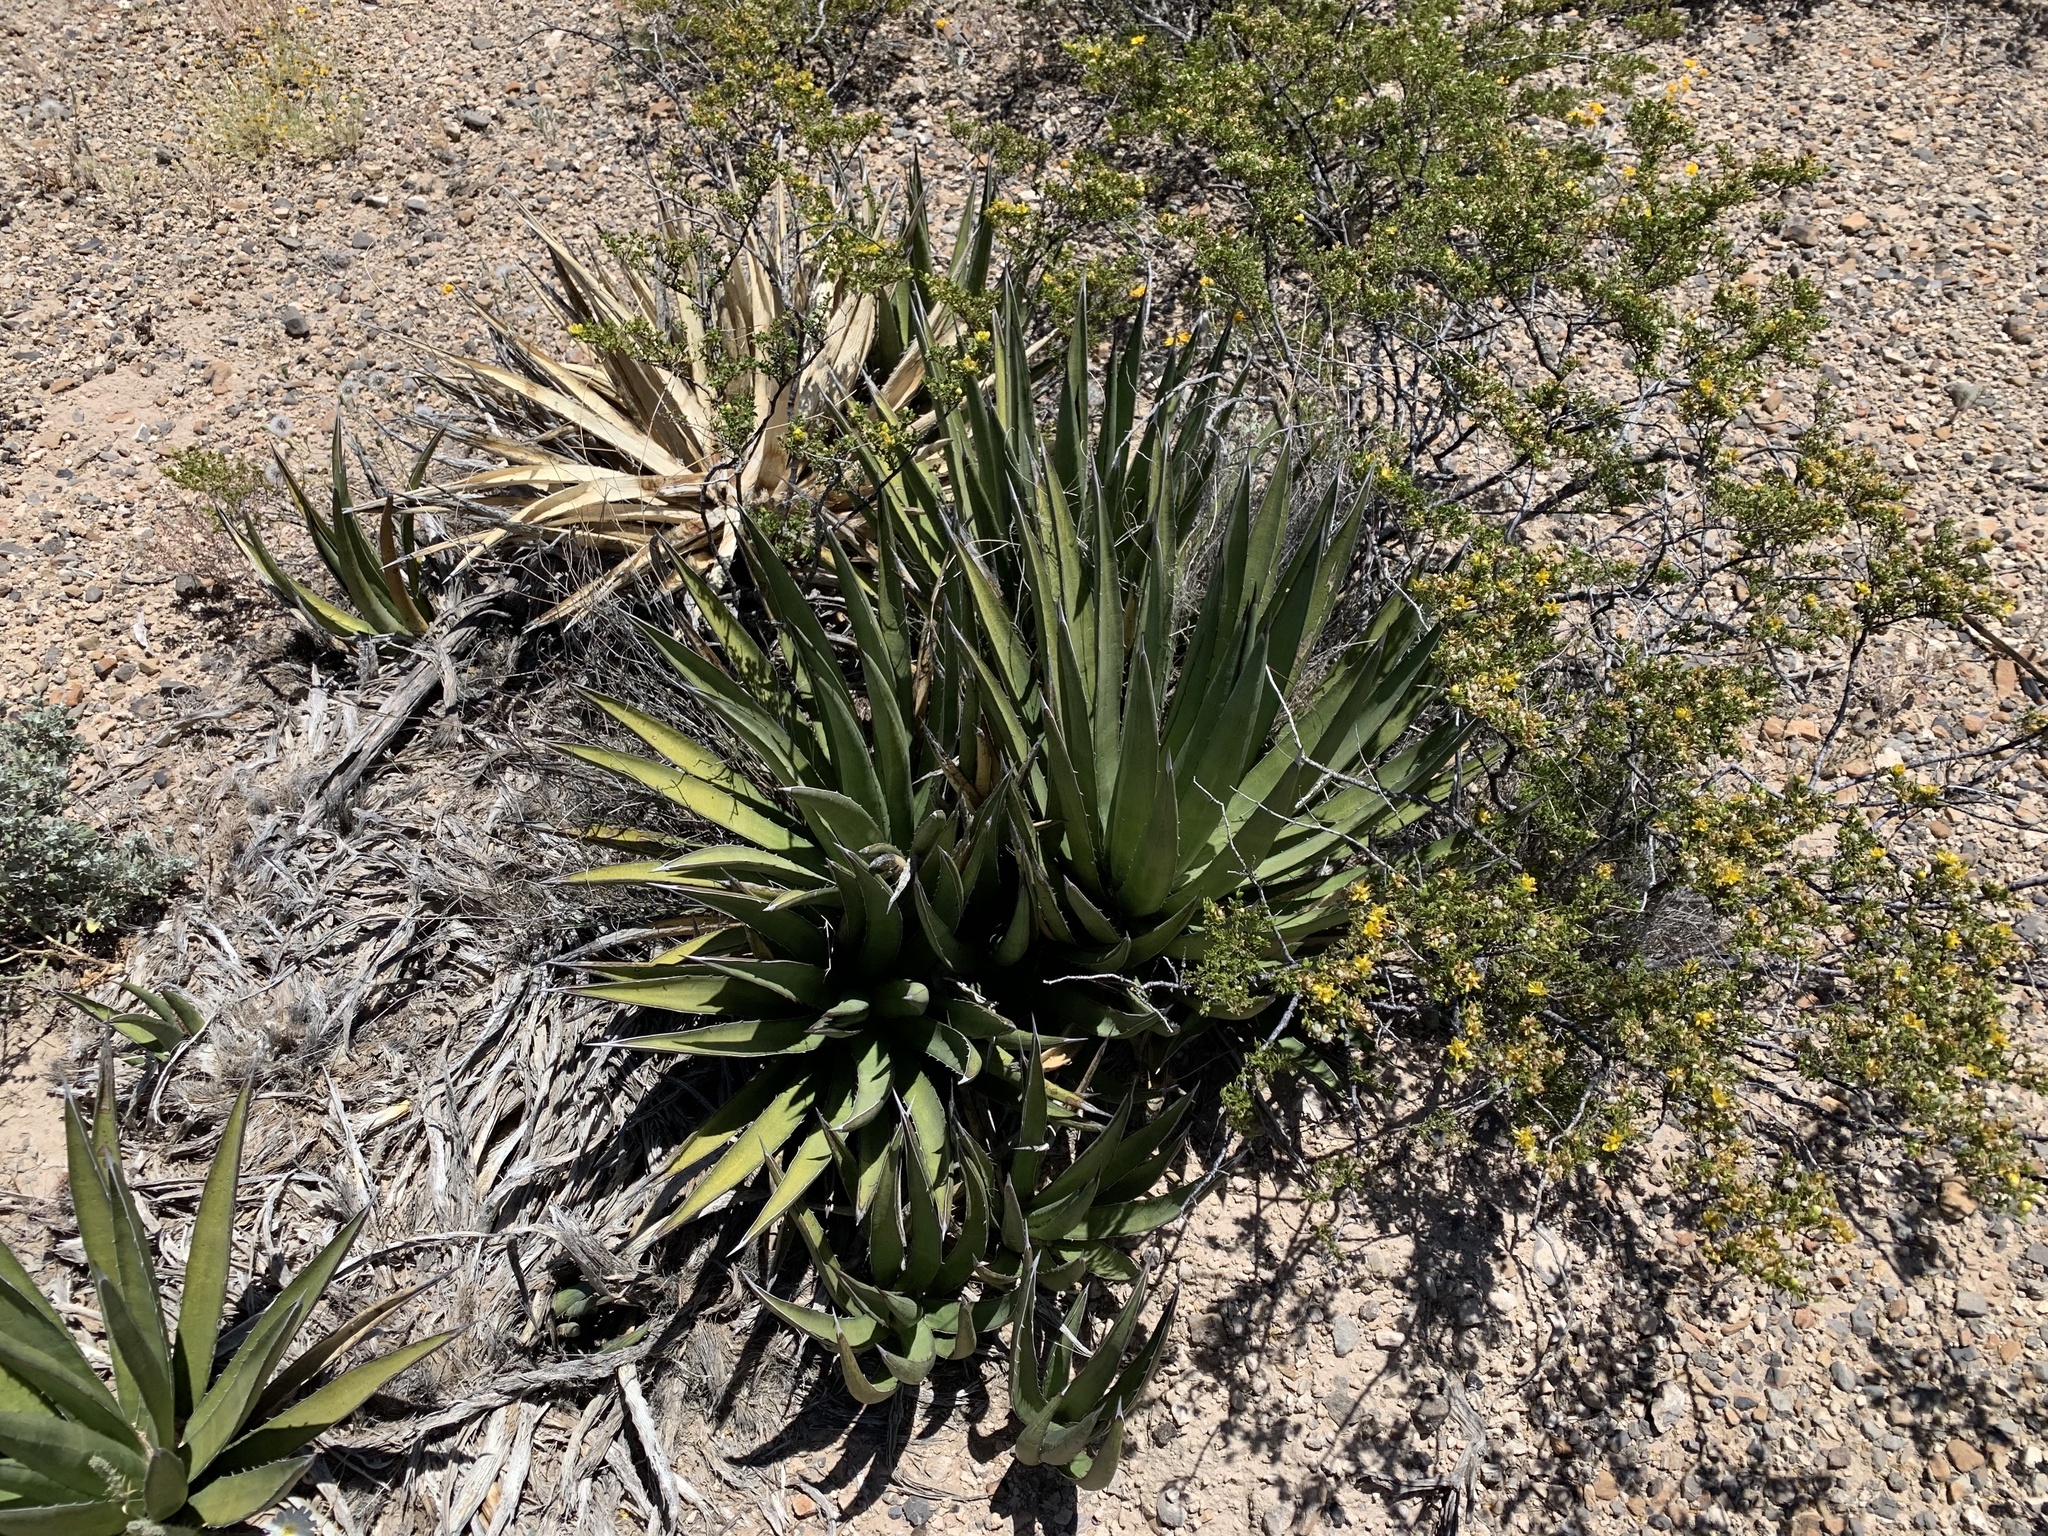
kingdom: Plantae
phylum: Tracheophyta
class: Liliopsida
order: Asparagales
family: Asparagaceae
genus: Agave
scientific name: Agave lechuguilla
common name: Lecheguilla agave
